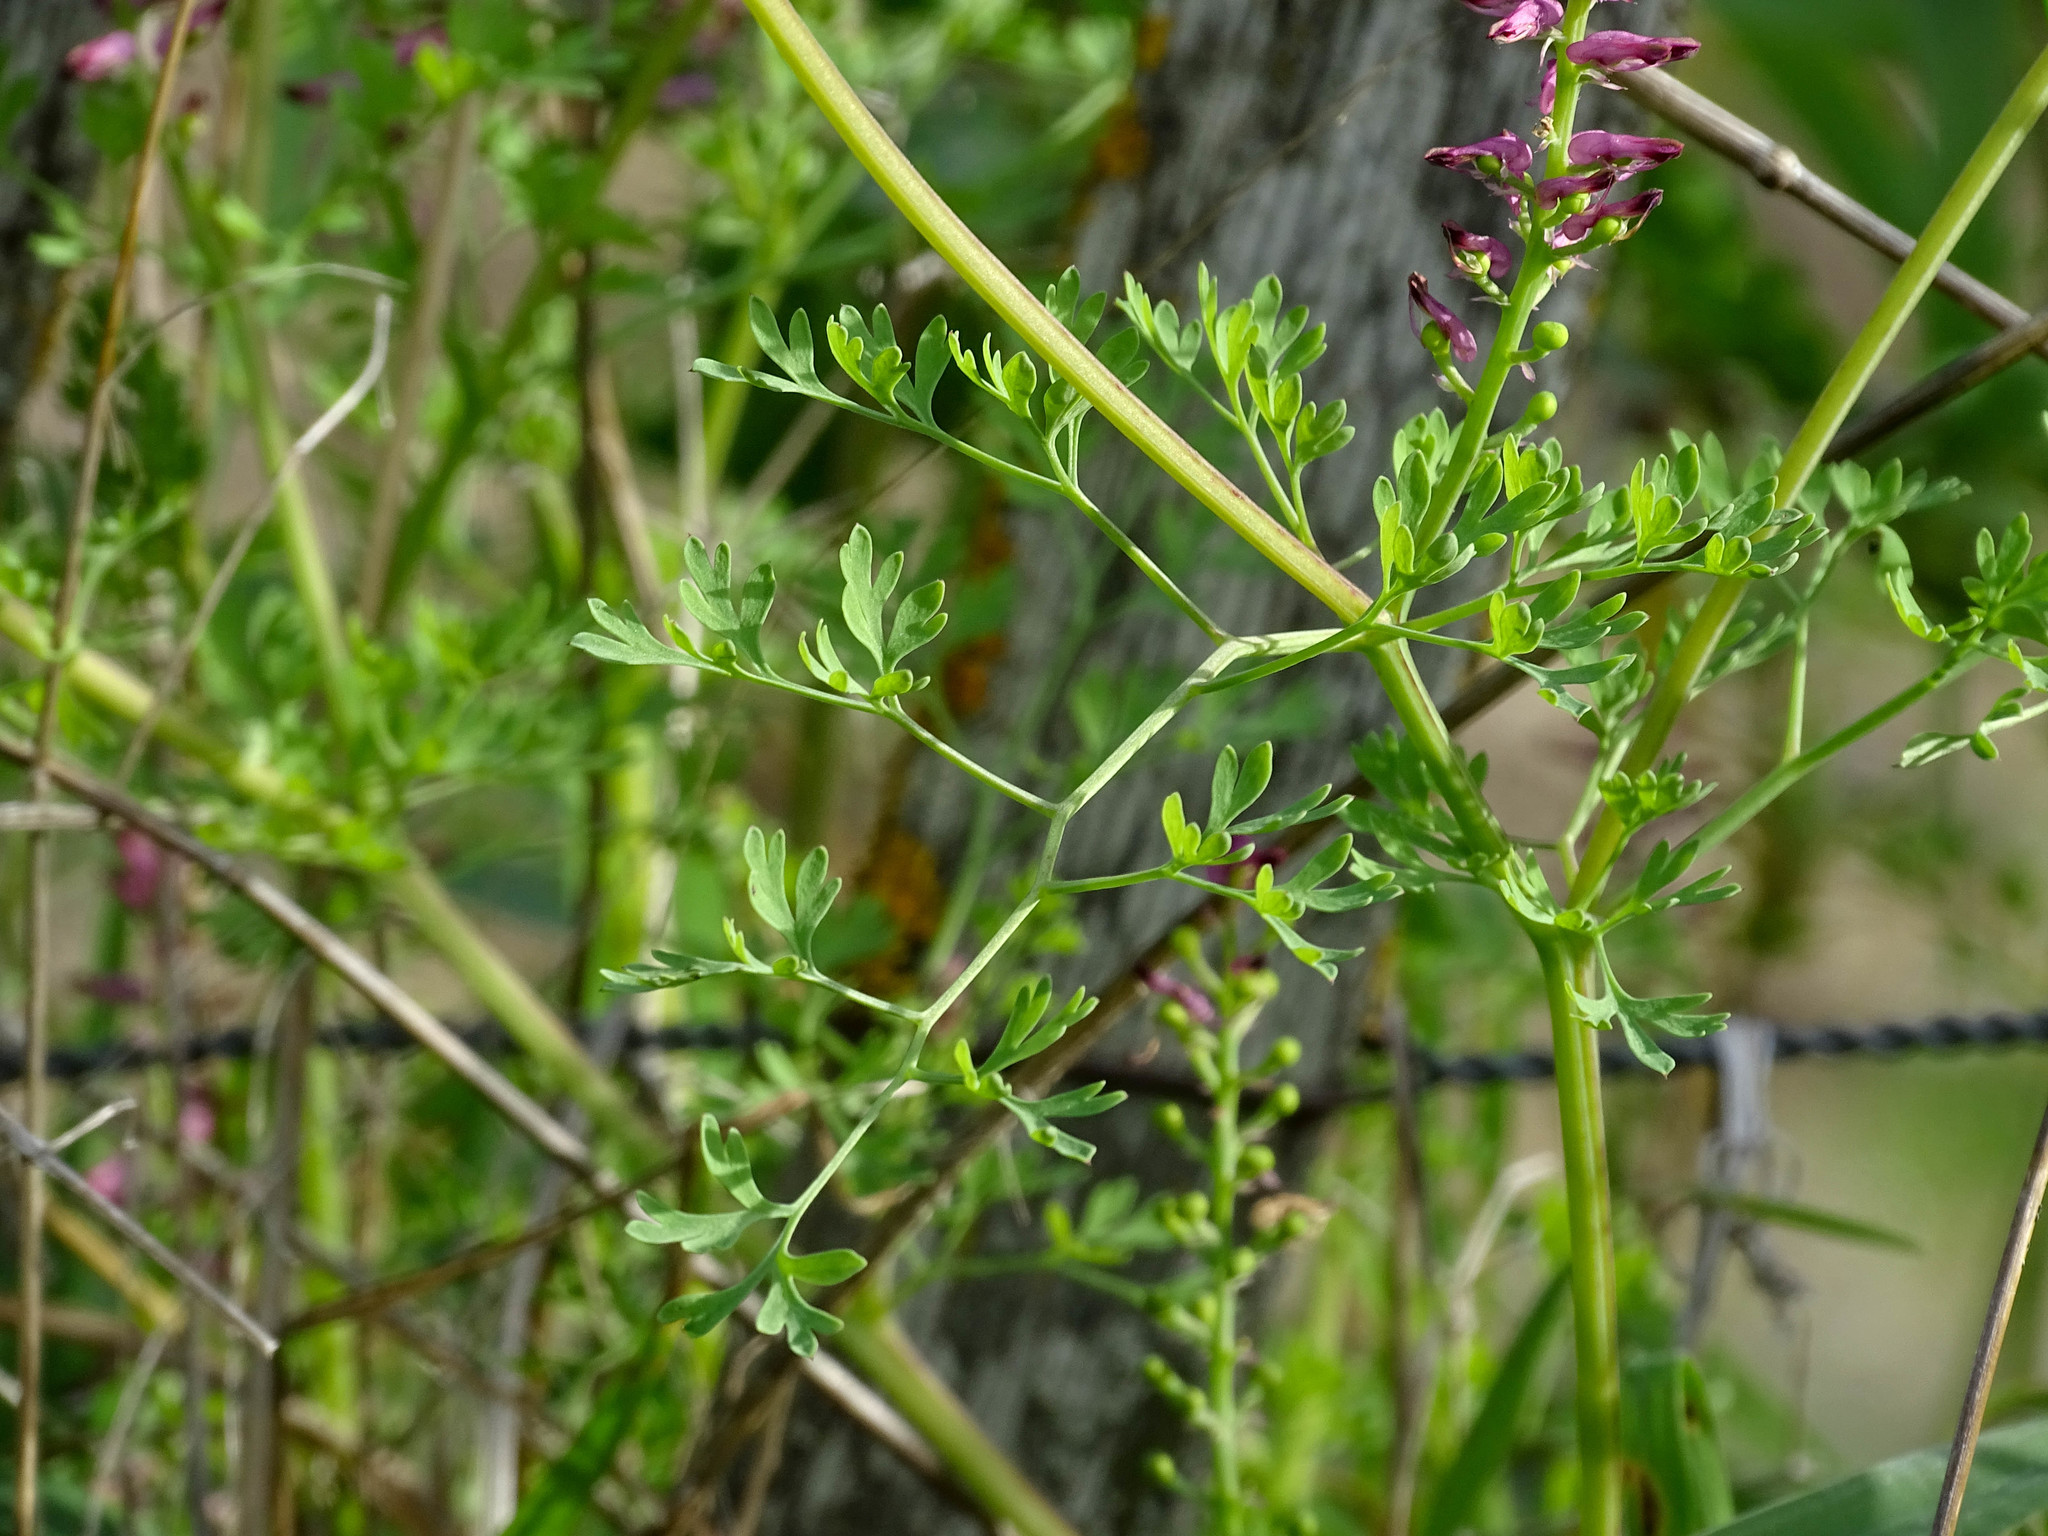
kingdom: Plantae
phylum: Tracheophyta
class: Magnoliopsida
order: Ranunculales
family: Papaveraceae
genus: Fumaria
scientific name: Fumaria officinalis
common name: Common fumitory
